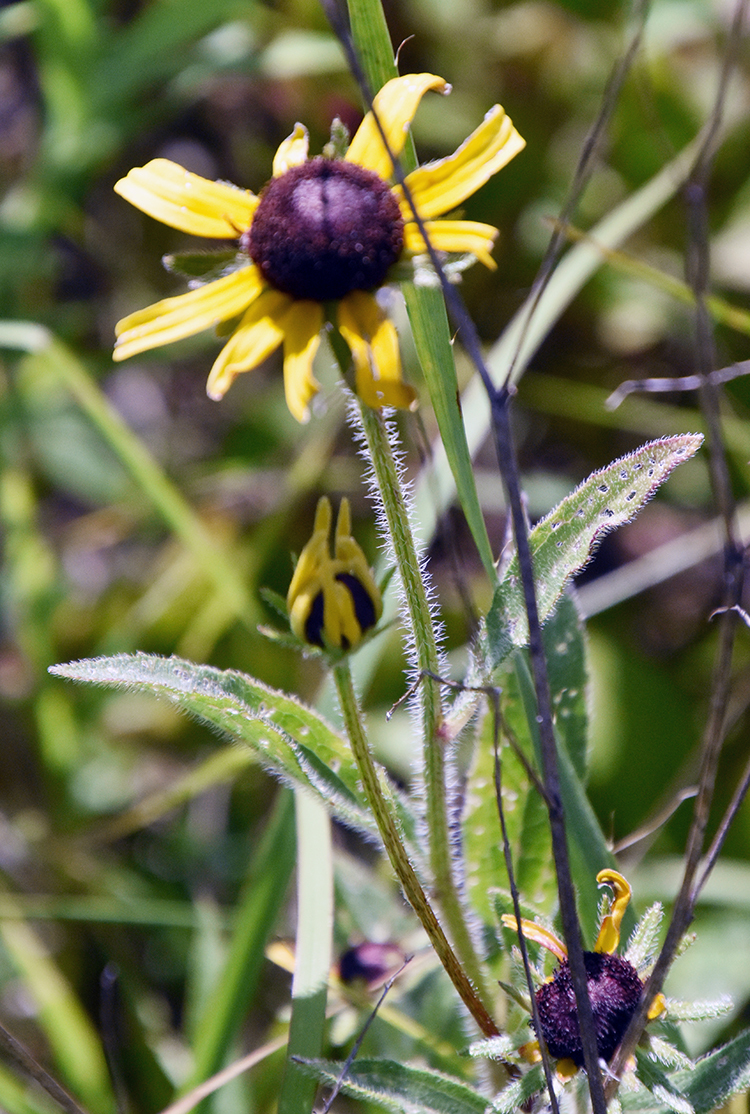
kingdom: Plantae
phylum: Tracheophyta
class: Magnoliopsida
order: Asterales
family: Asteraceae
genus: Rudbeckia
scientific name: Rudbeckia hirta
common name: Black-eyed-susan
